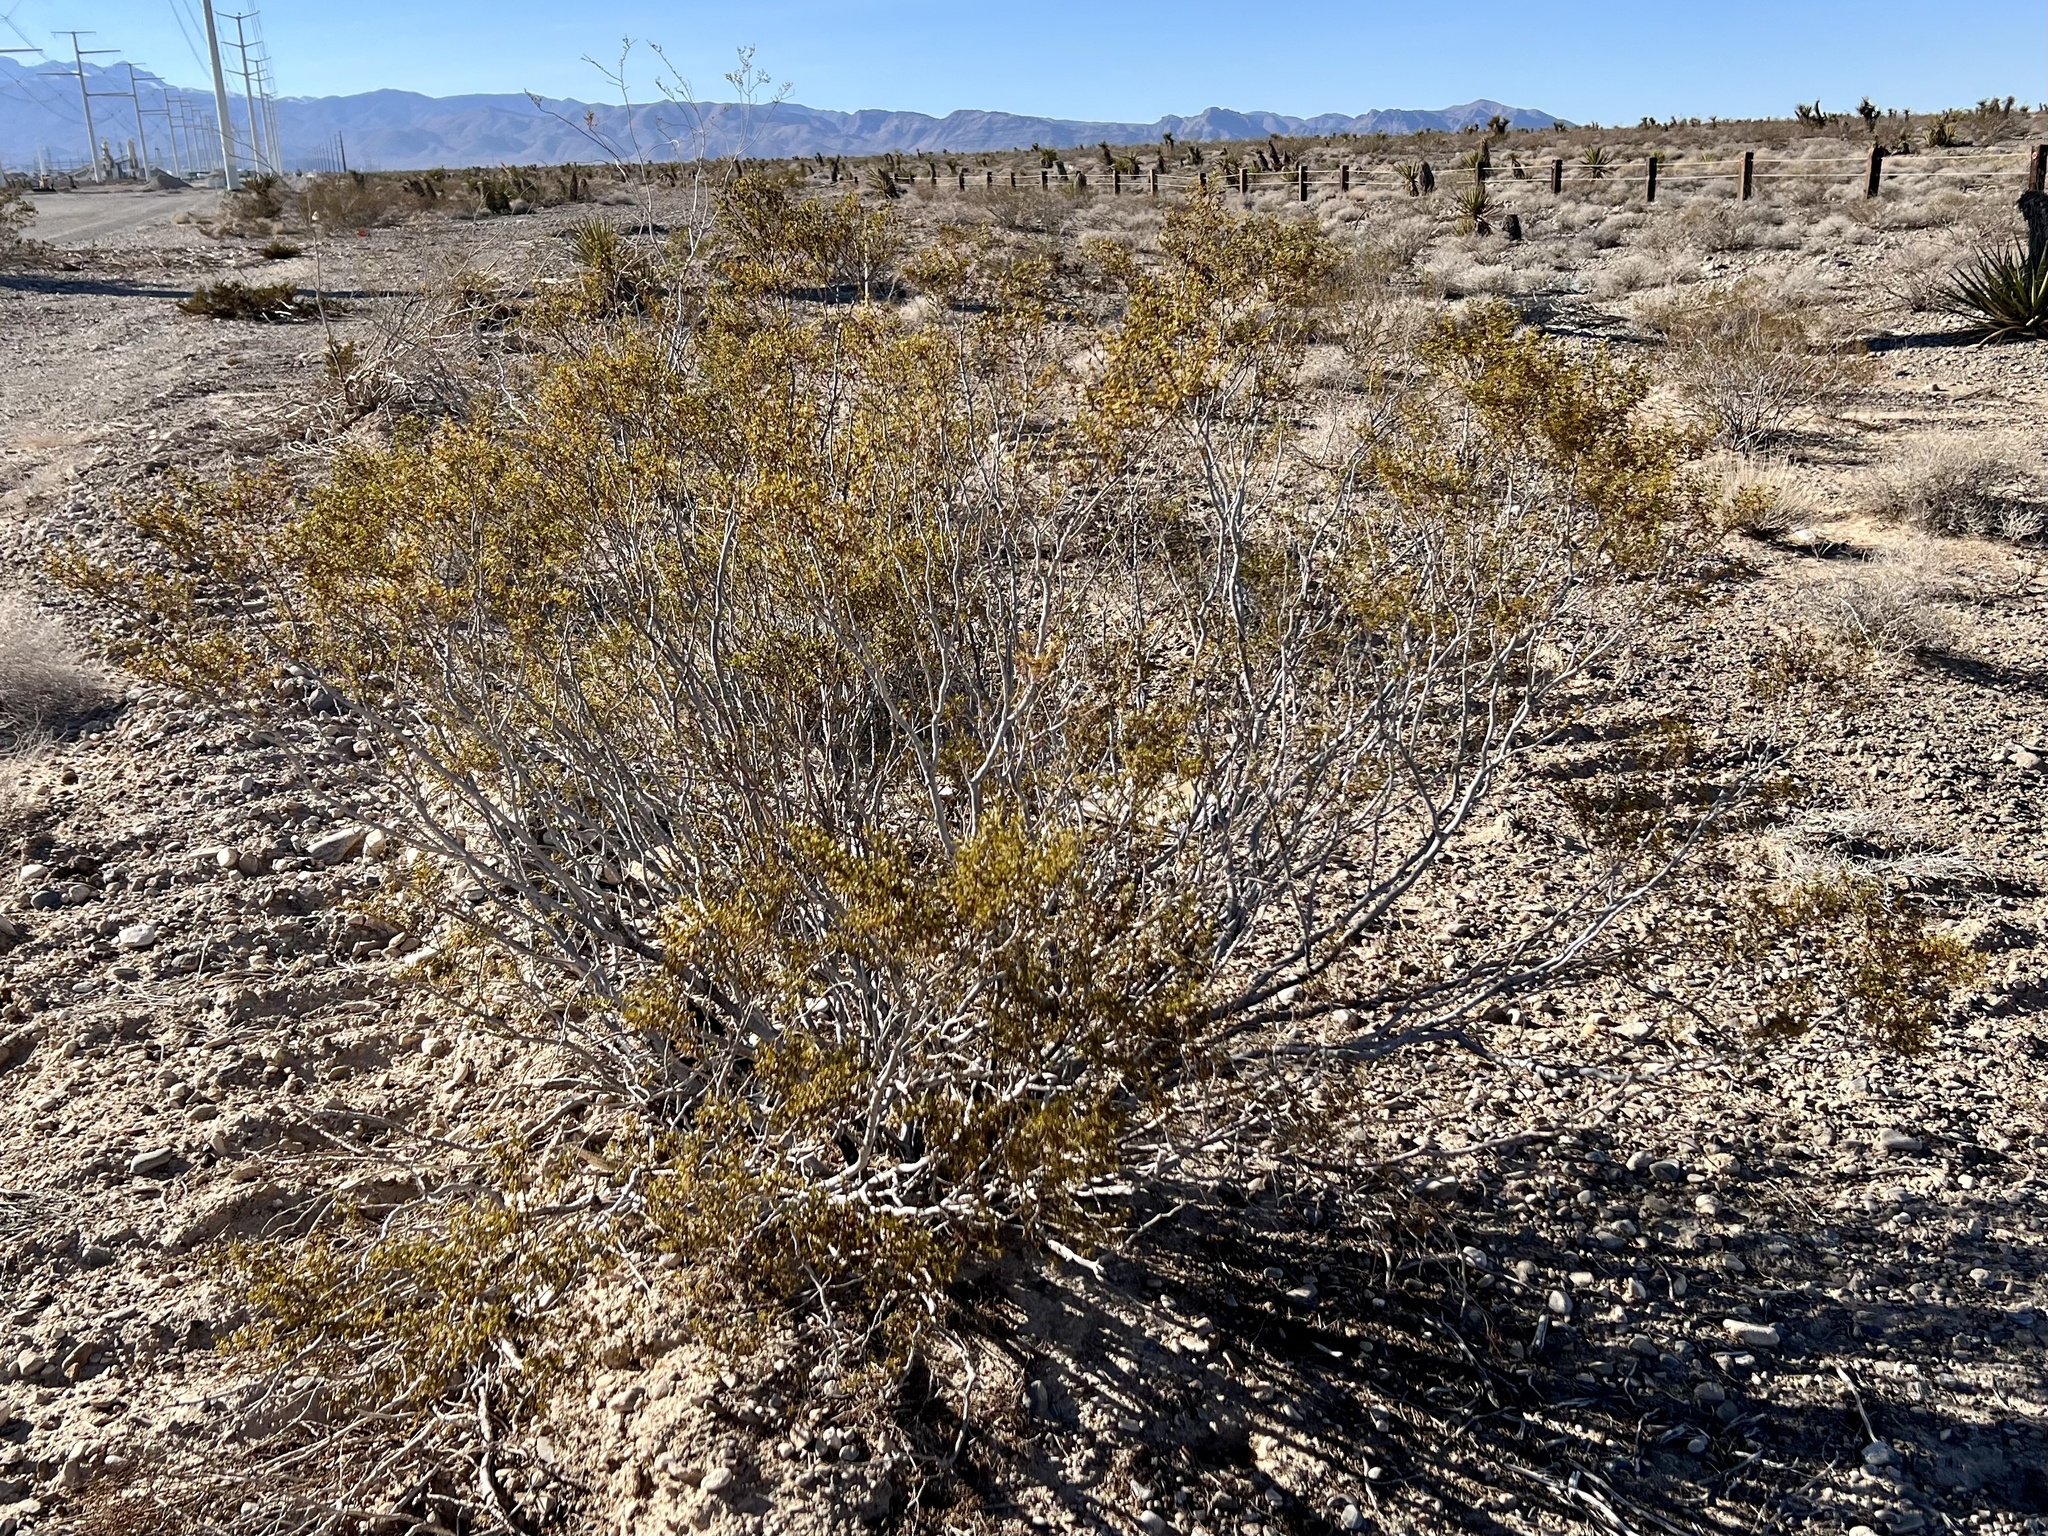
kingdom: Plantae
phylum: Tracheophyta
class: Magnoliopsida
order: Zygophyllales
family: Zygophyllaceae
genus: Larrea
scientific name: Larrea tridentata
